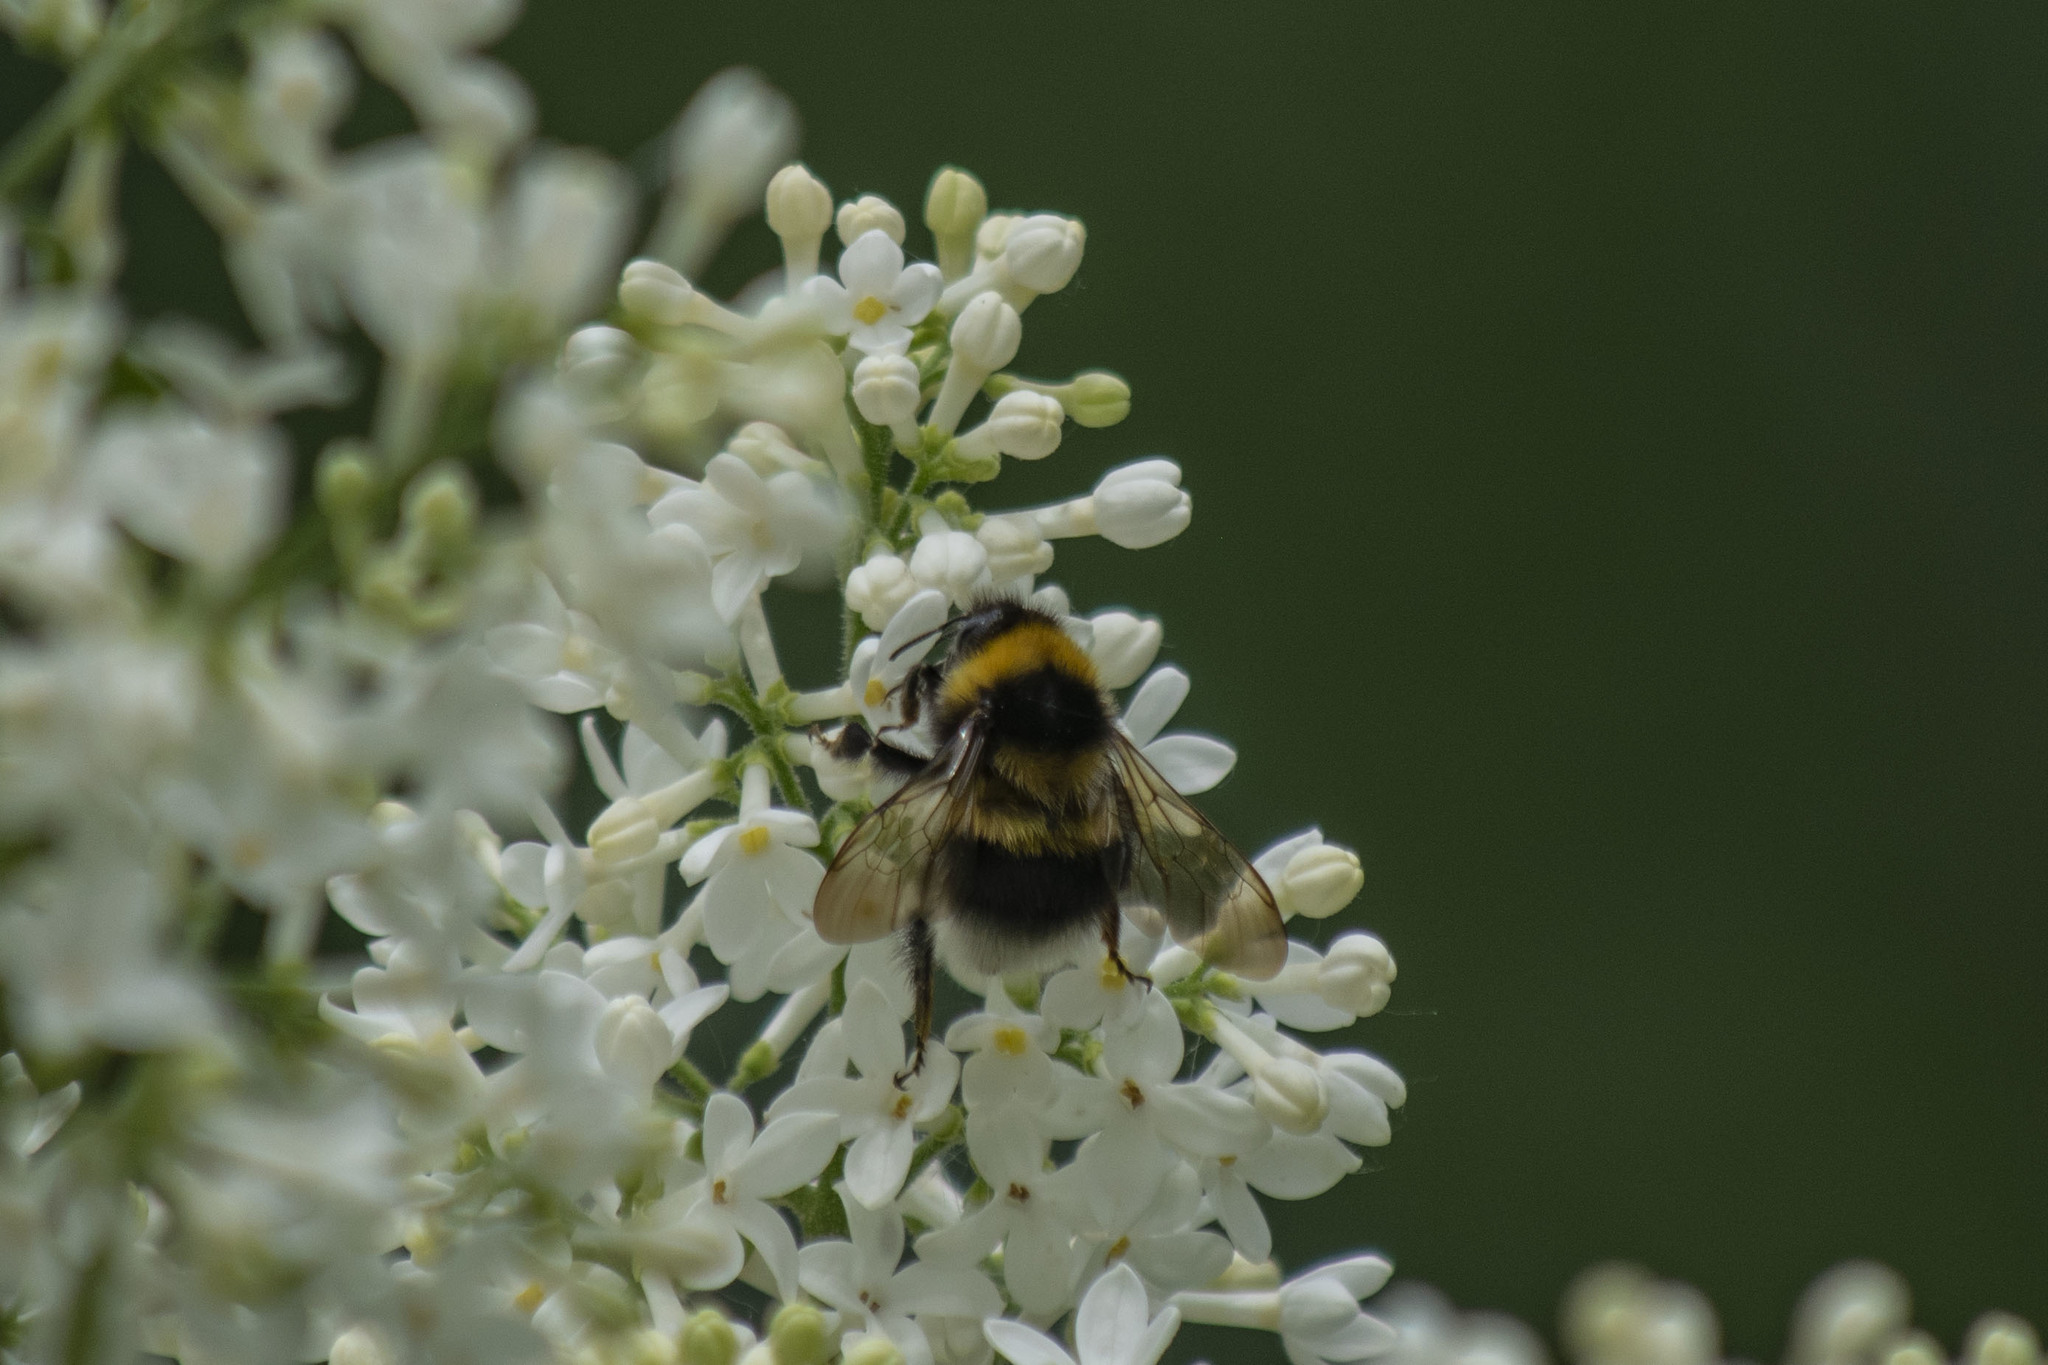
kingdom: Animalia
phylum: Arthropoda
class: Insecta
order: Hymenoptera
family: Apidae
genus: Bombus
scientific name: Bombus hortorum
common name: Garden bumblebee
